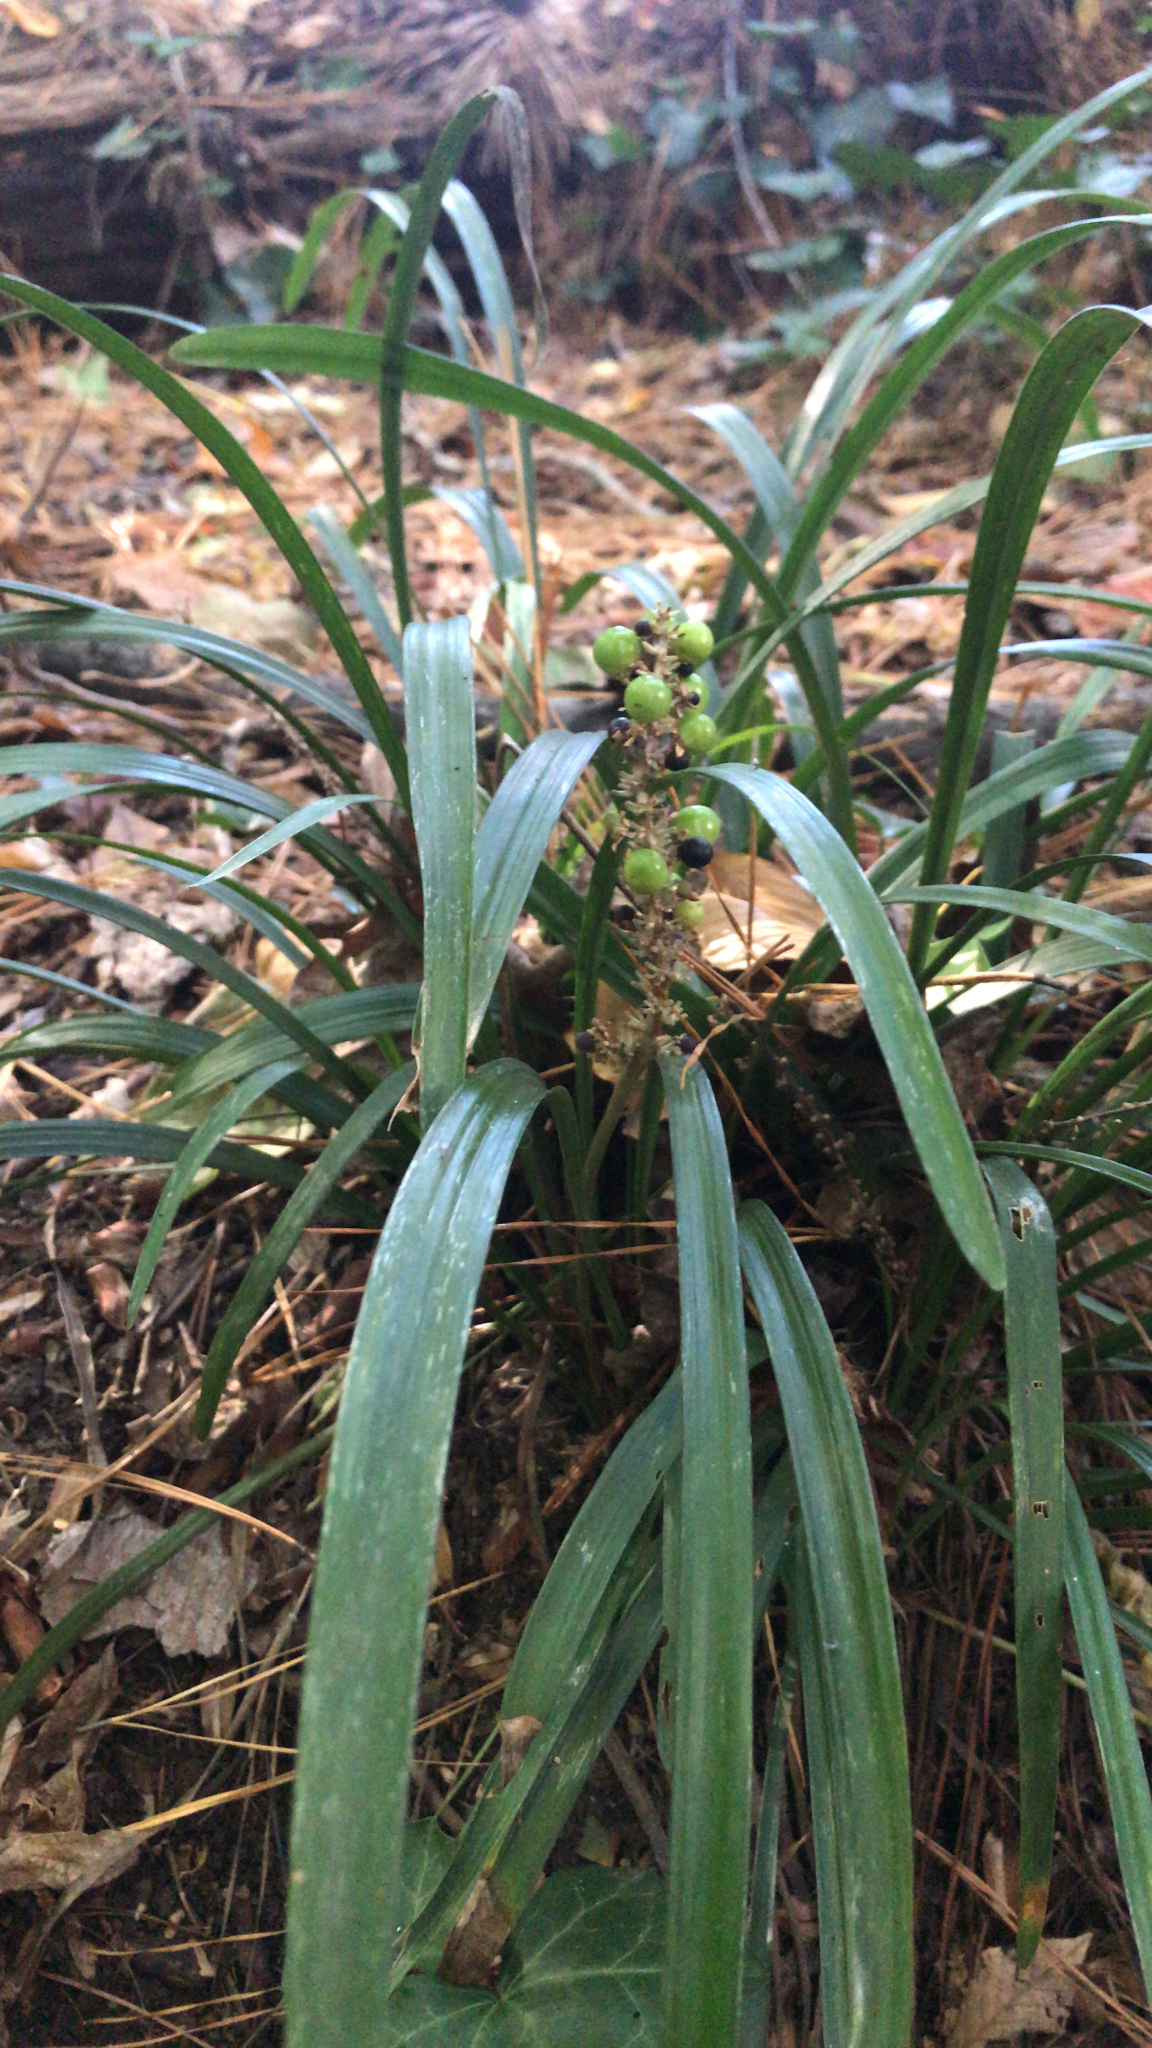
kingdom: Plantae
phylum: Tracheophyta
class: Liliopsida
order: Asparagales
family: Asparagaceae
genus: Liriope
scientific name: Liriope muscari
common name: Big blue lilyturf
